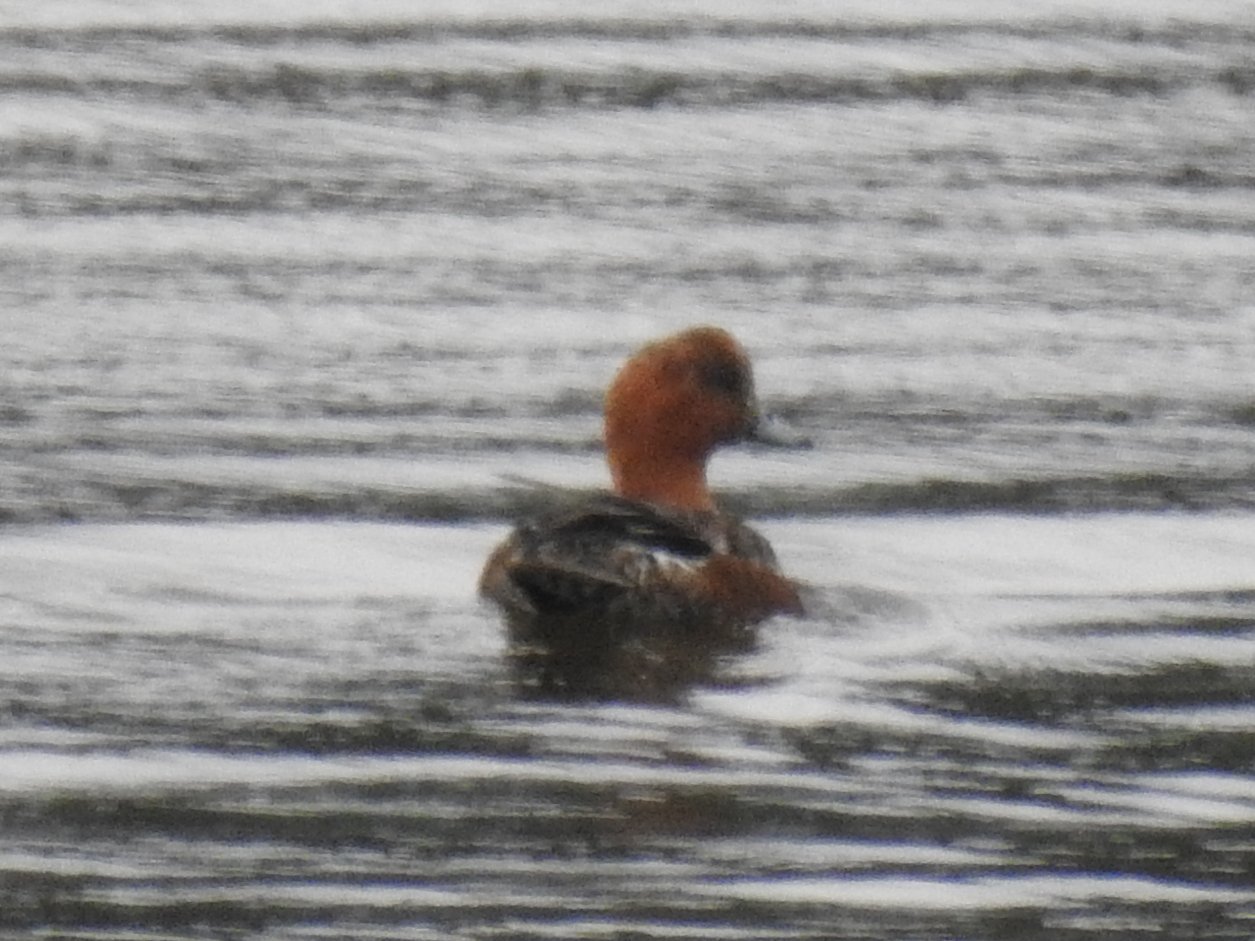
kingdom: Animalia
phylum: Chordata
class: Aves
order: Anseriformes
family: Anatidae
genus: Mareca
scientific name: Mareca penelope
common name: Eurasian wigeon
